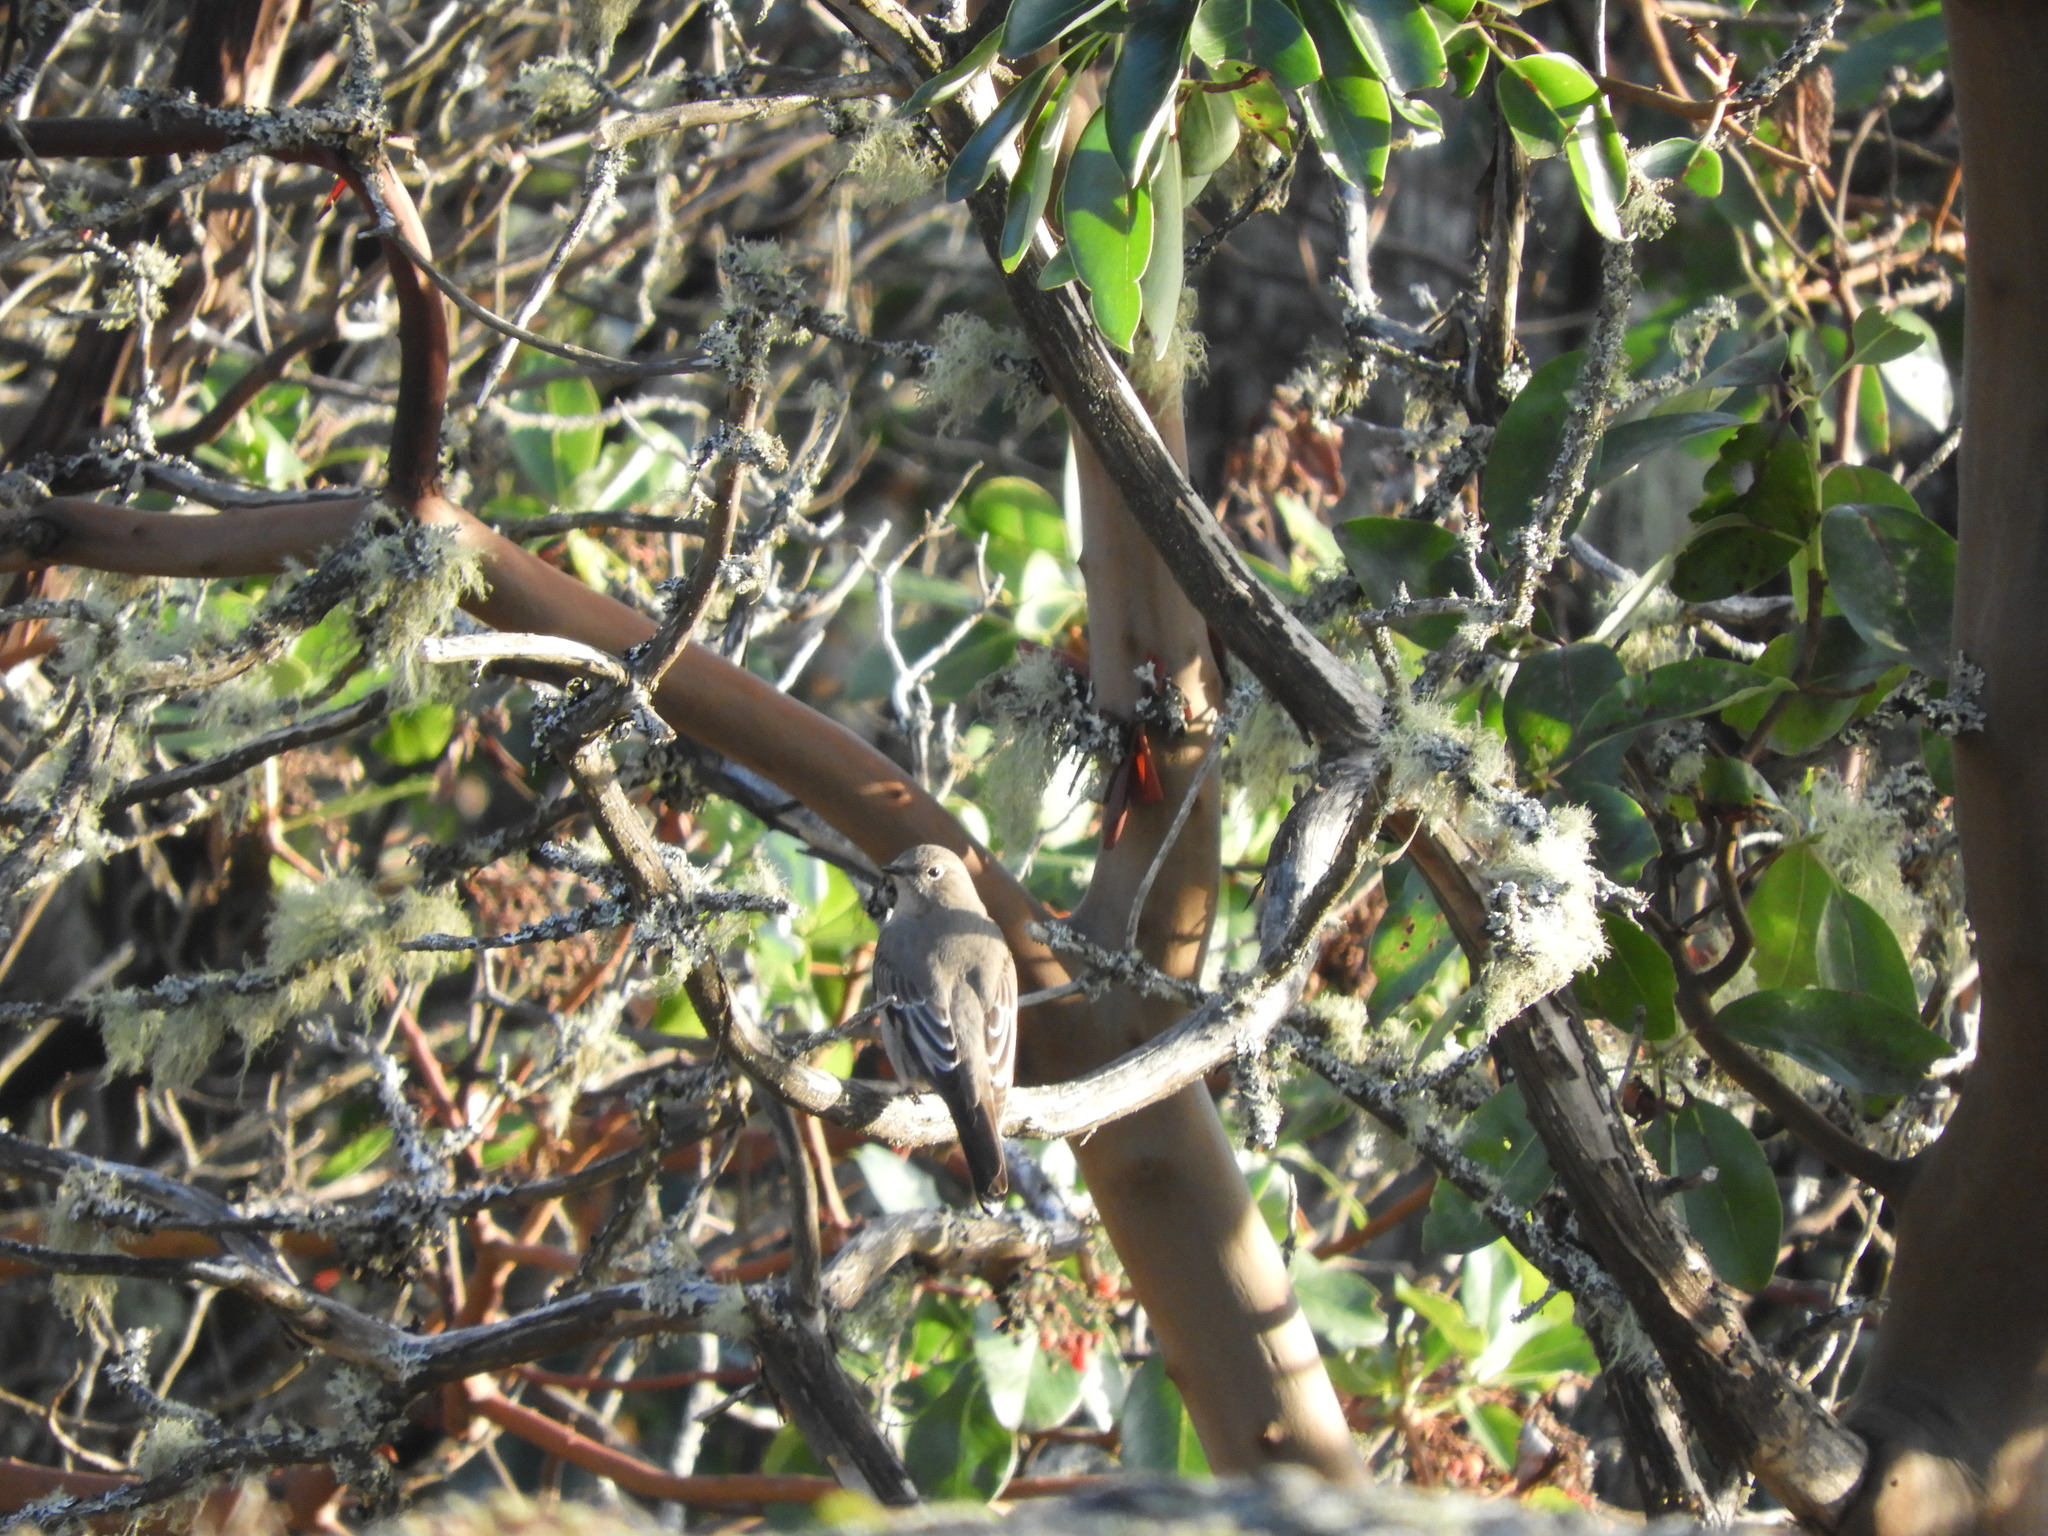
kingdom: Animalia
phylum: Chordata
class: Aves
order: Passeriformes
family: Turdidae
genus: Myadestes
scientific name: Myadestes townsendi
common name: Townsend's solitaire
